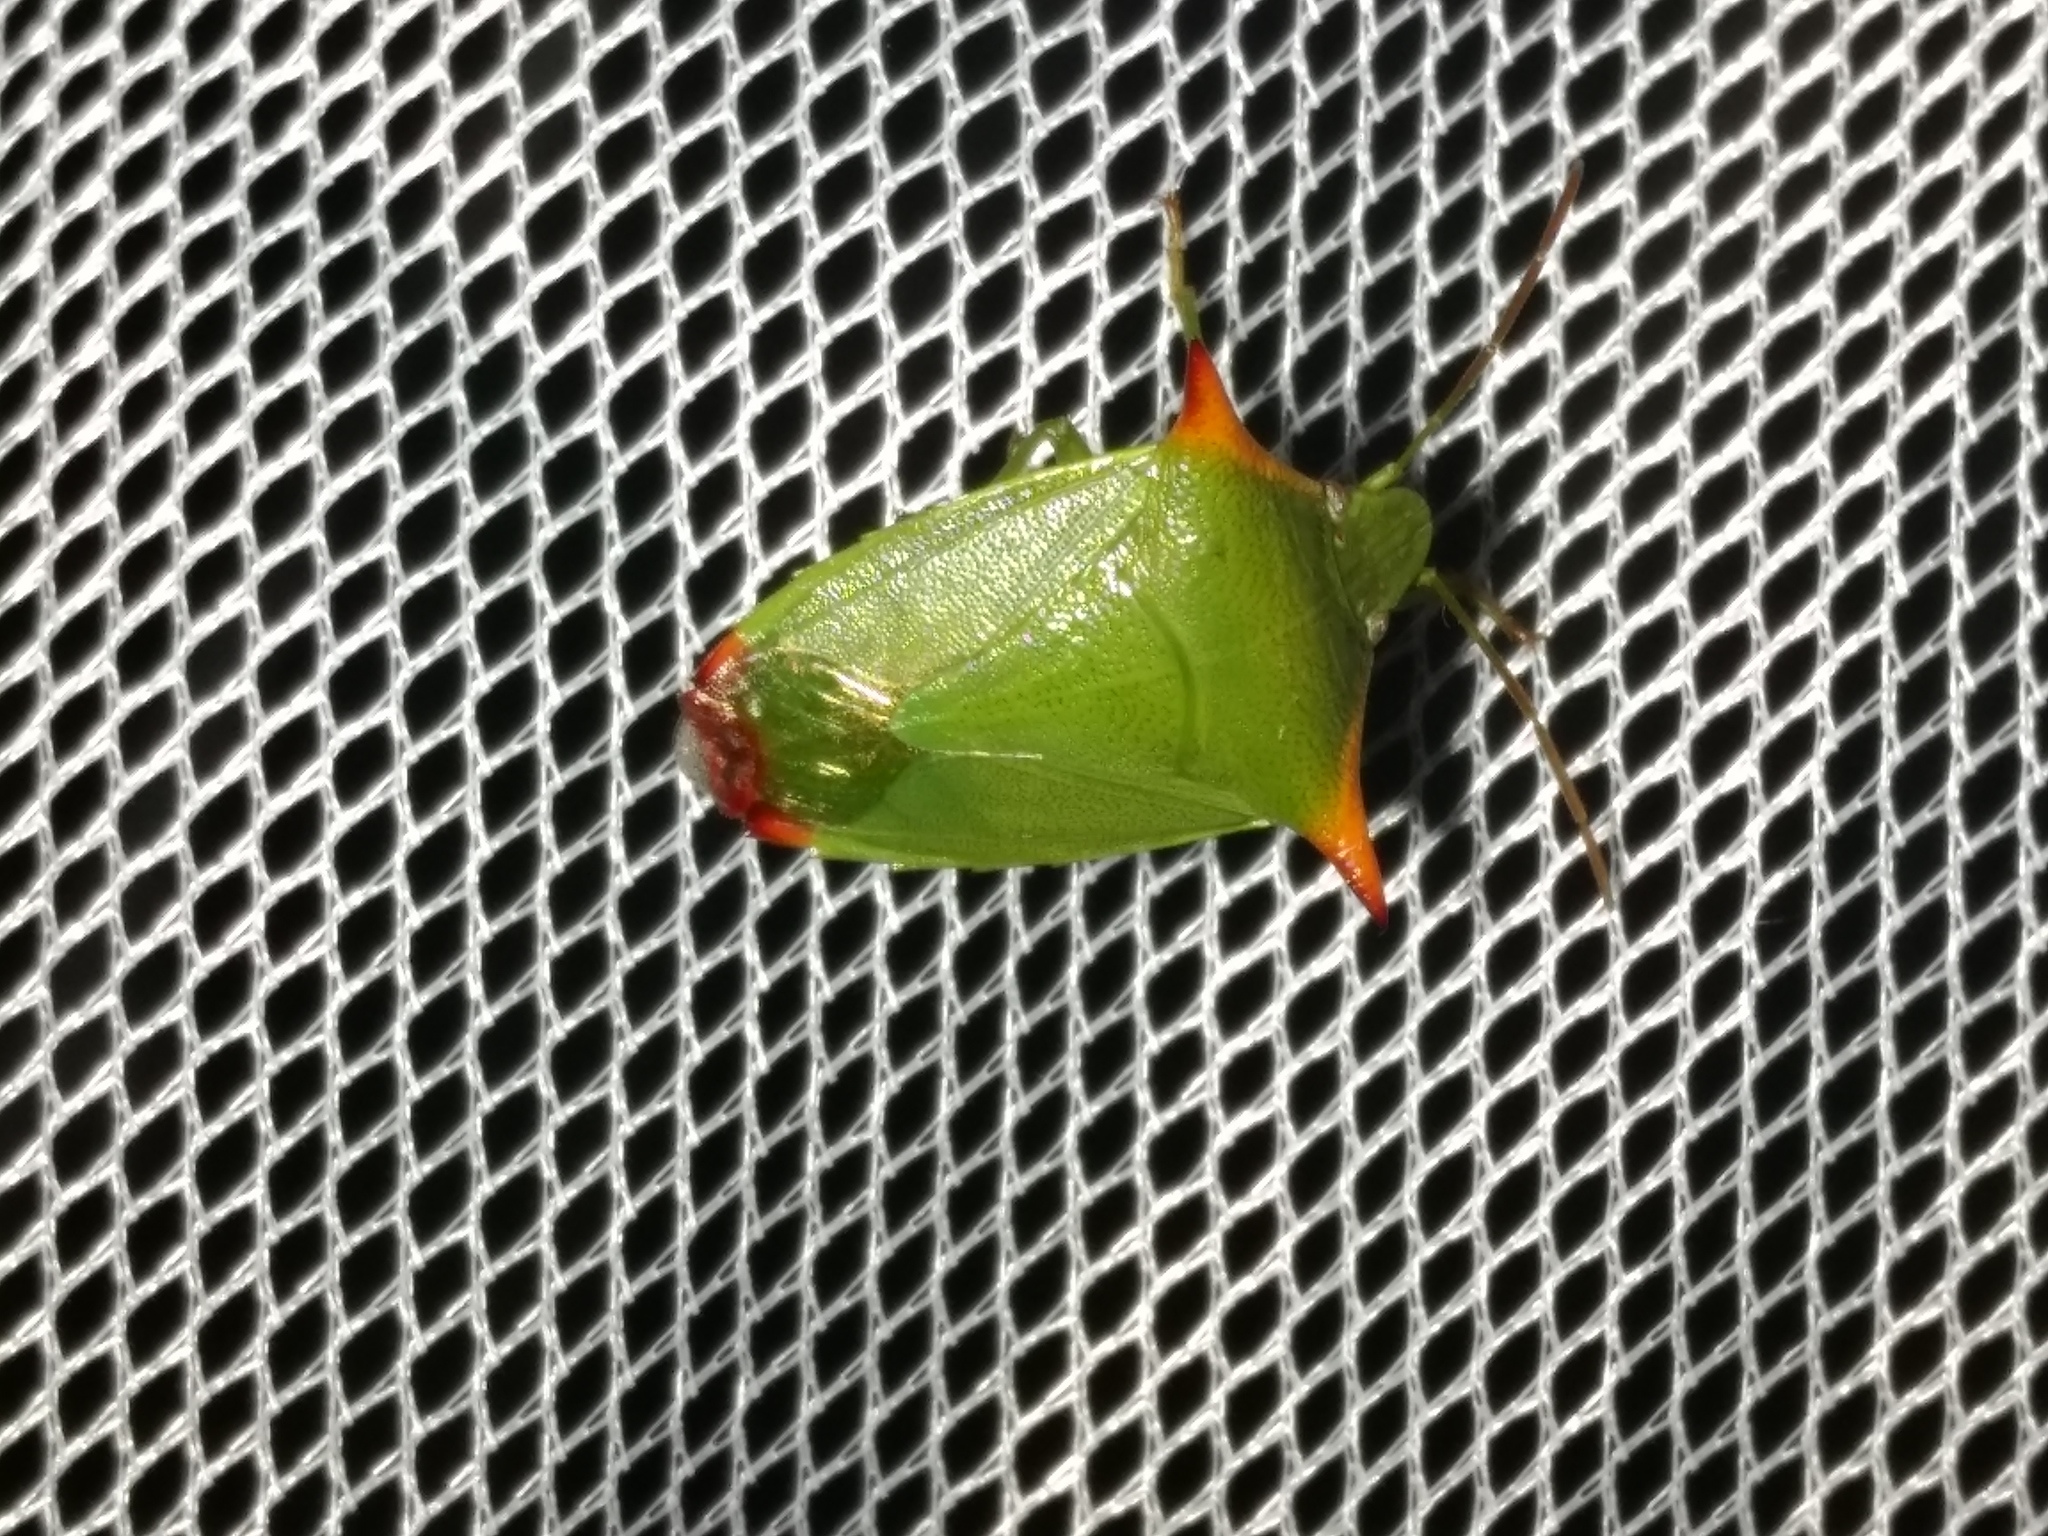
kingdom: Animalia
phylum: Arthropoda
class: Insecta
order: Hemiptera
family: Pentatomidae
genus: Avicenna
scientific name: Avicenna
